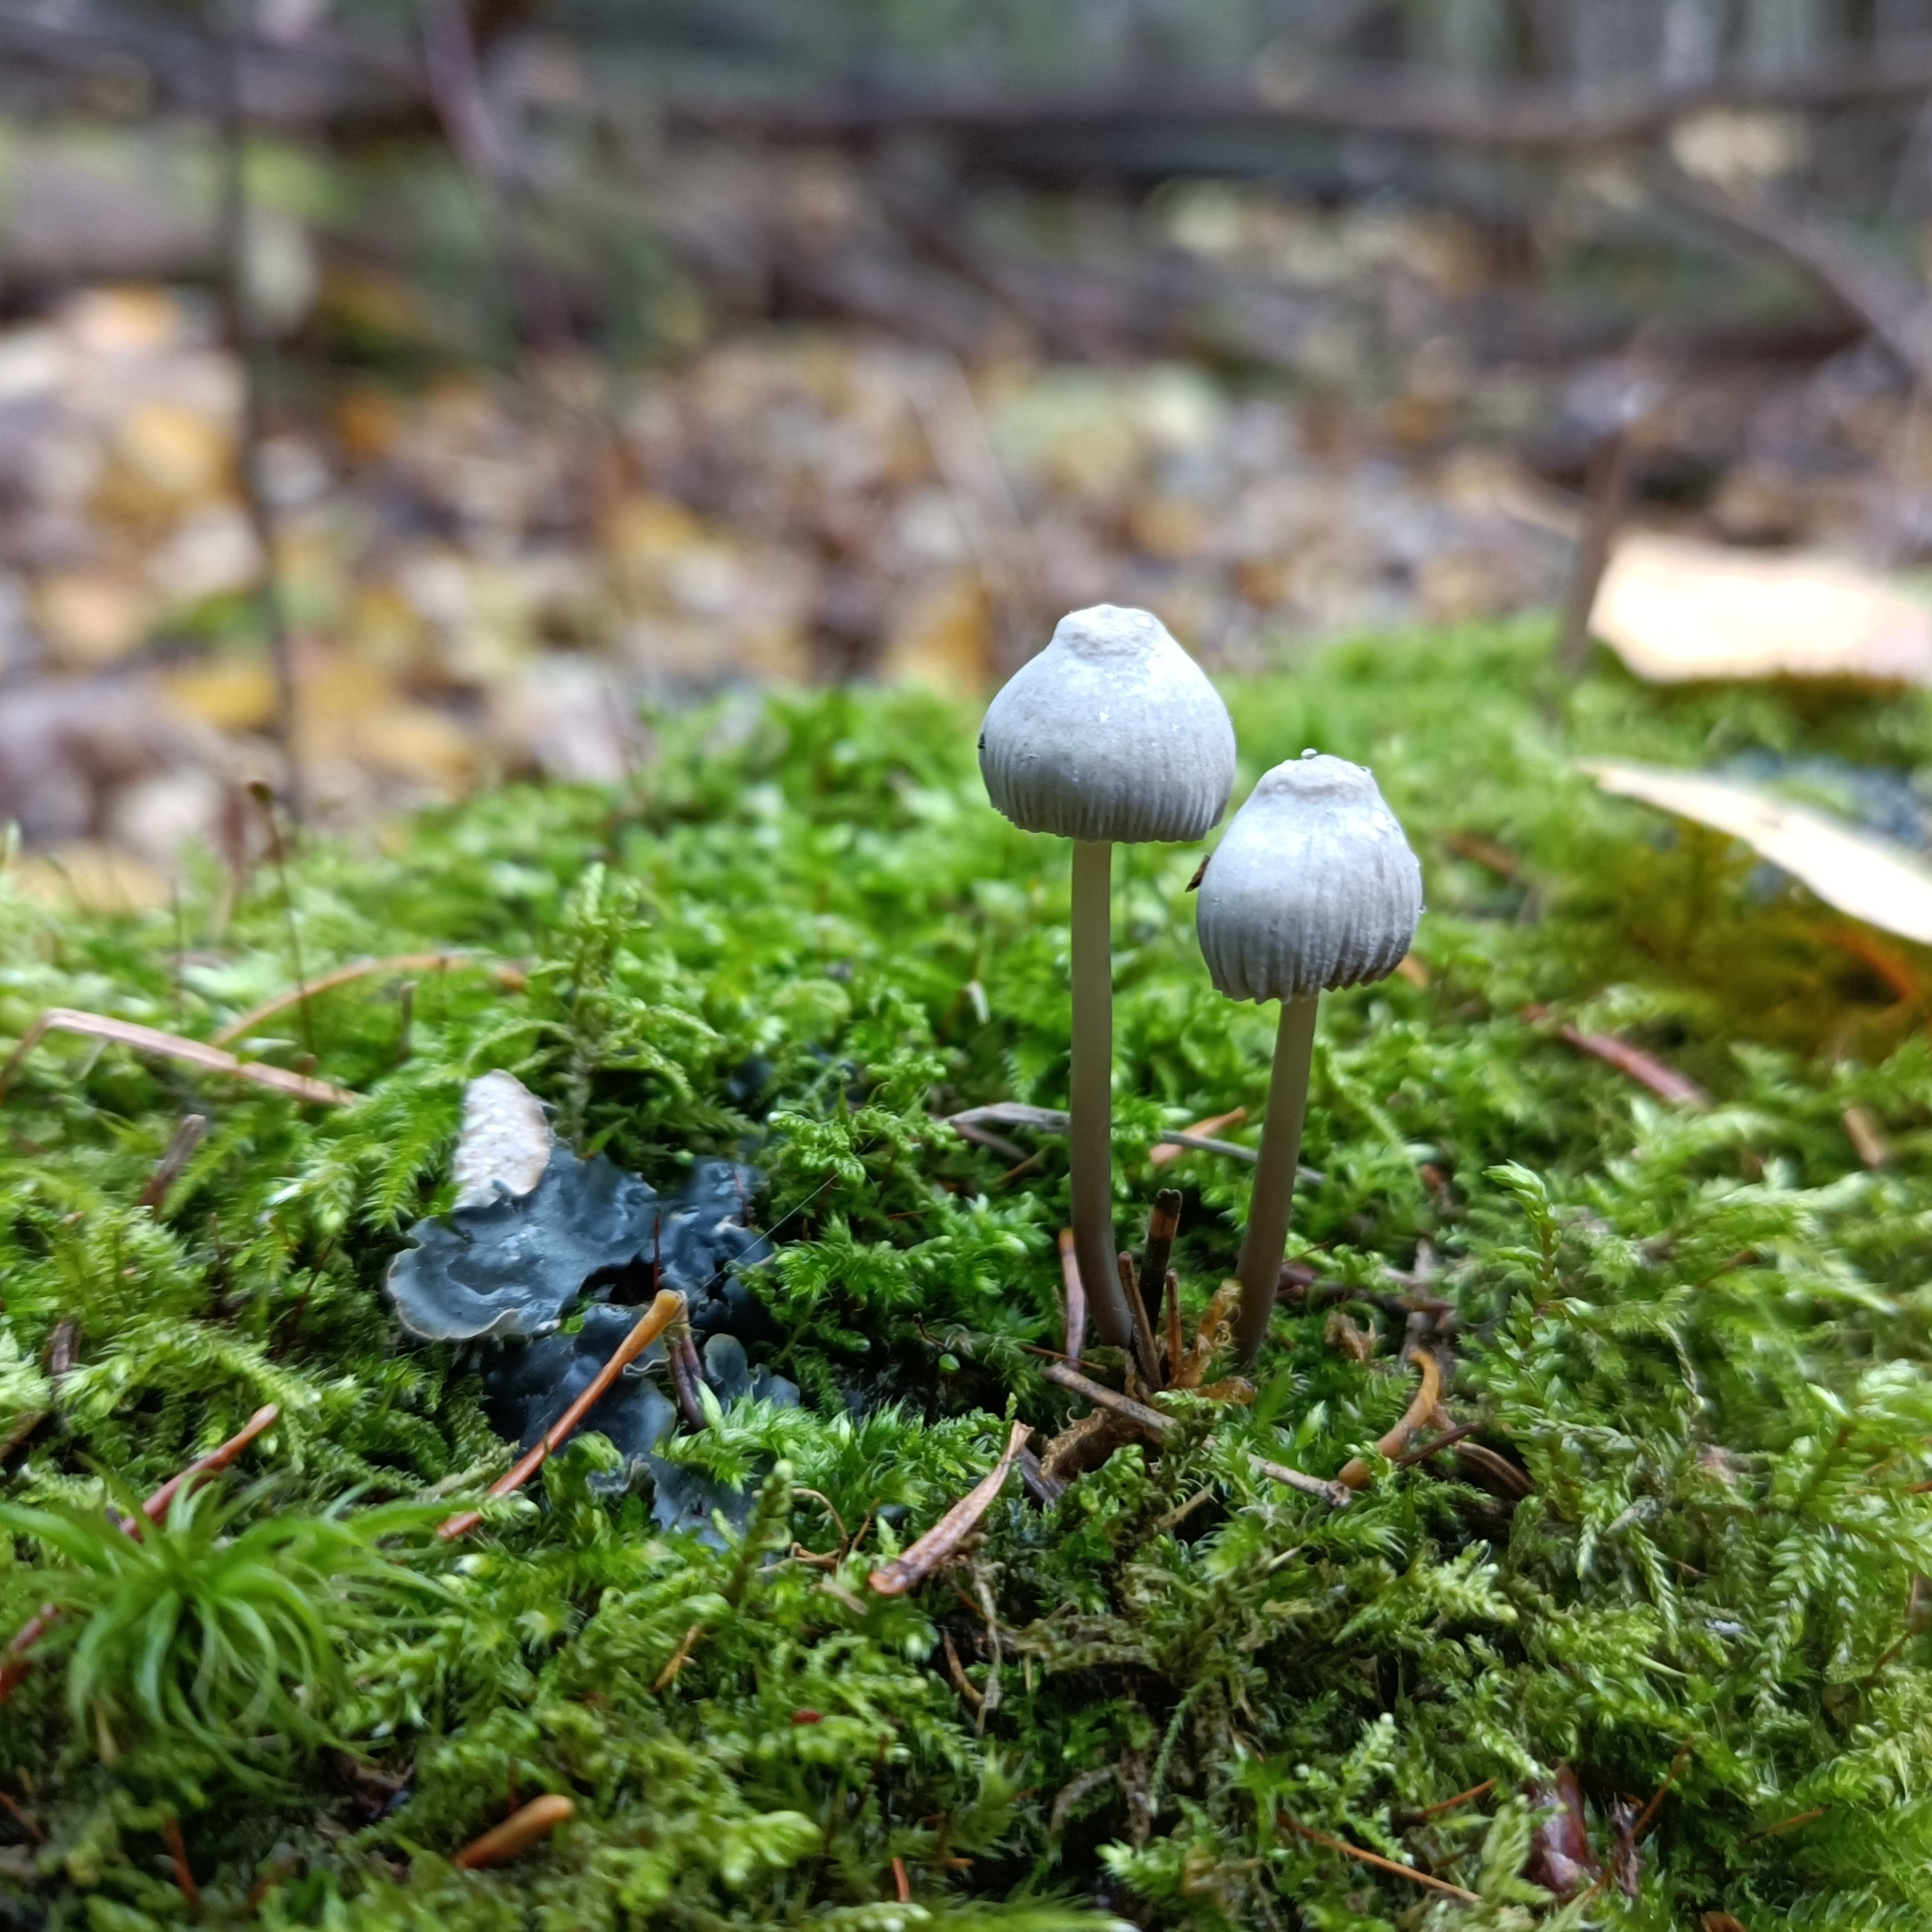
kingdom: Fungi
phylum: Basidiomycota
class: Agaricomycetes
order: Agaricales
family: Mycenaceae
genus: Mycena
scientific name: Mycena galopus
